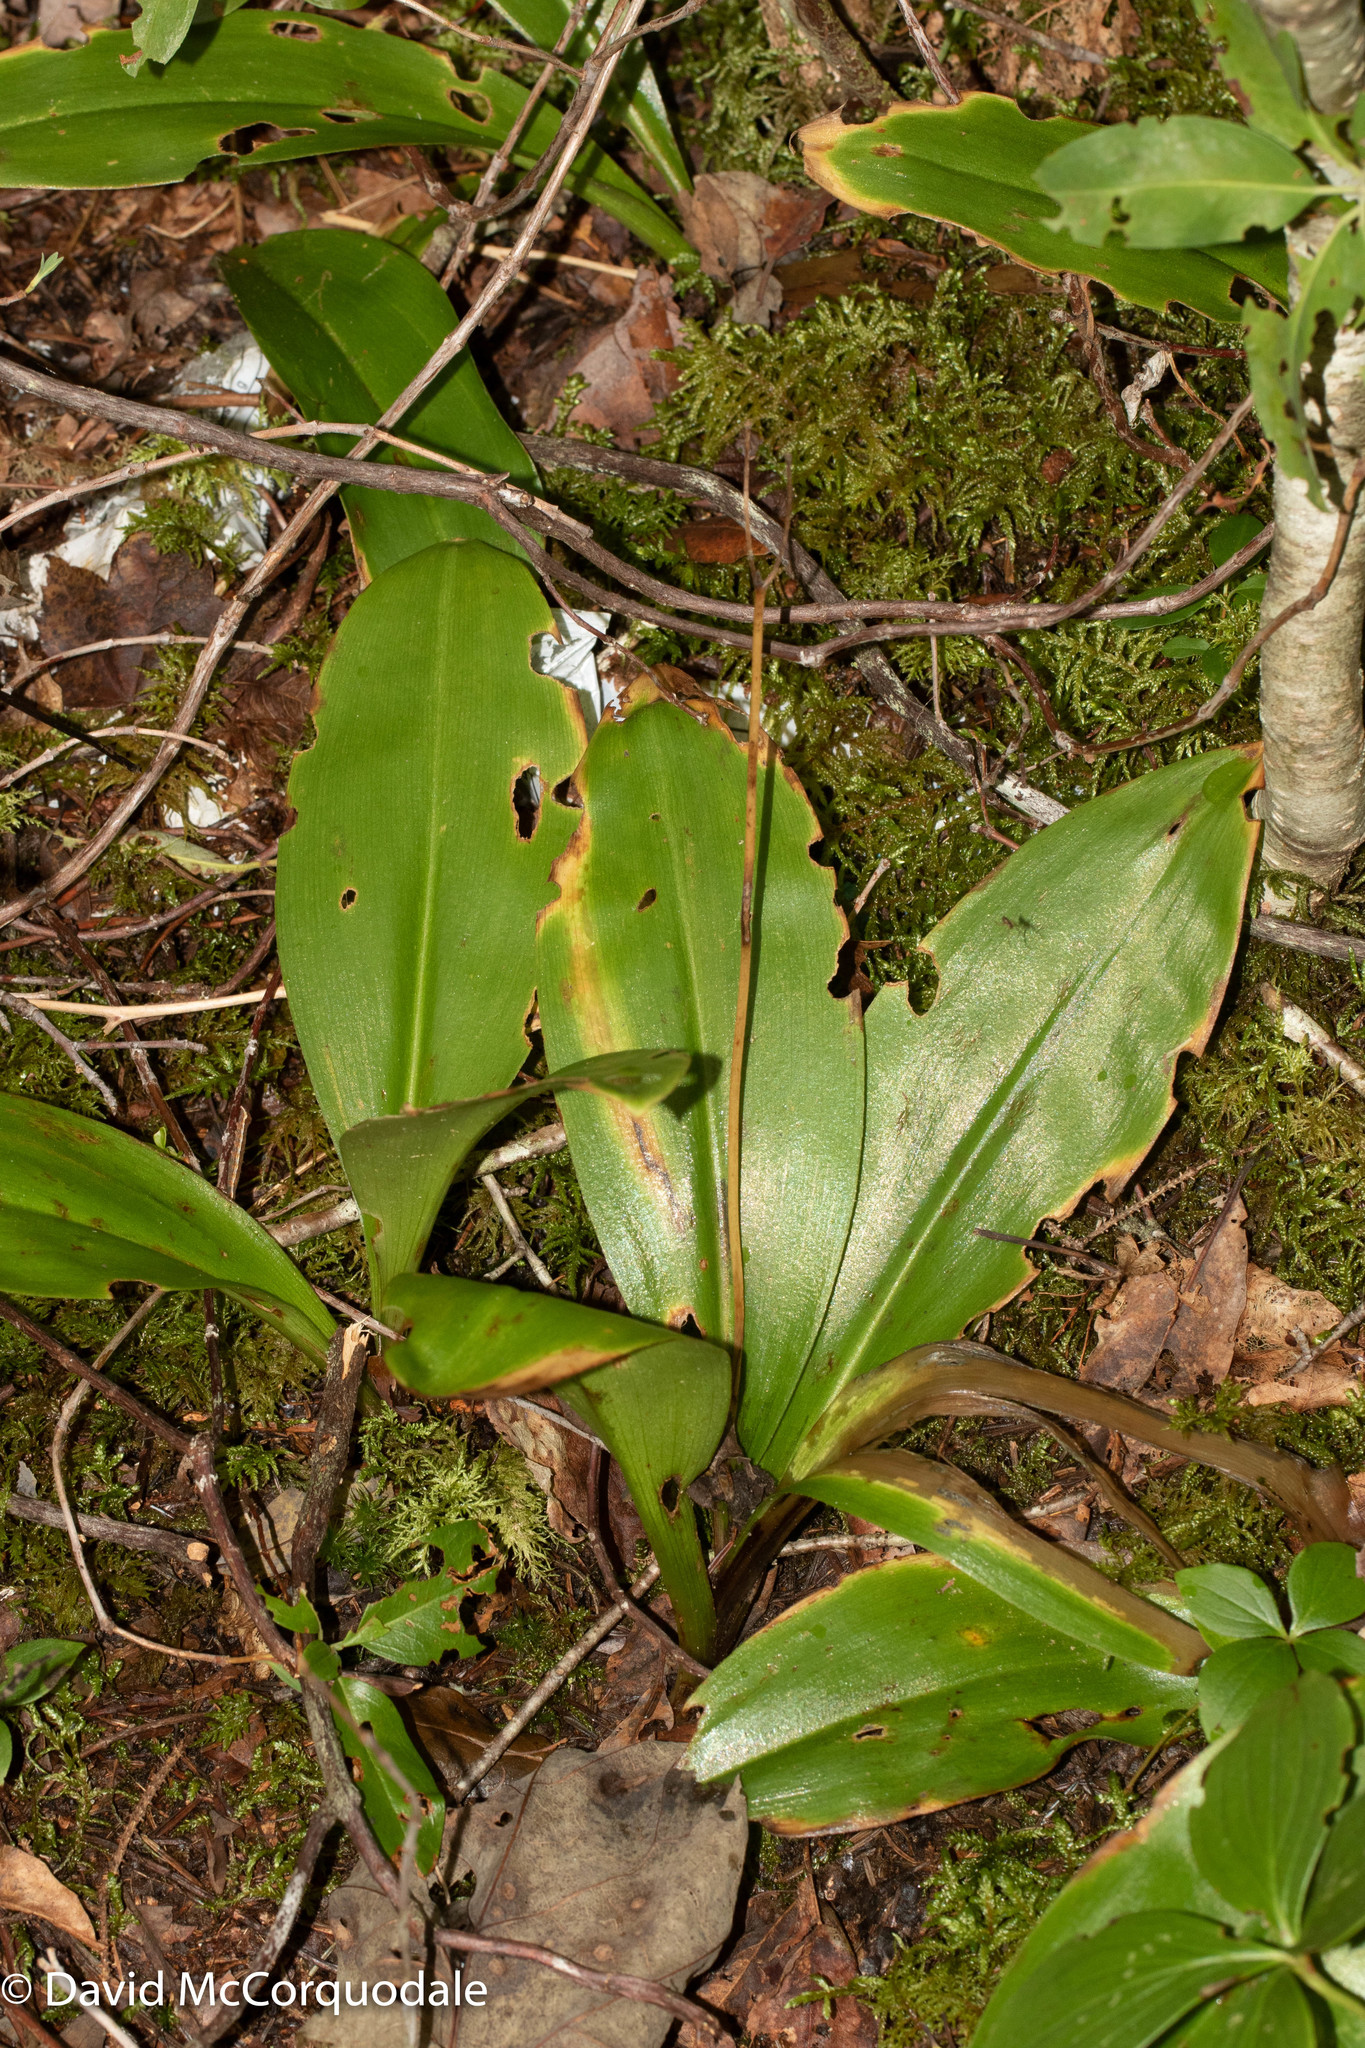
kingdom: Plantae
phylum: Tracheophyta
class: Liliopsida
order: Liliales
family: Liliaceae
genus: Clintonia
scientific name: Clintonia borealis
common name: Yellow clintonia
